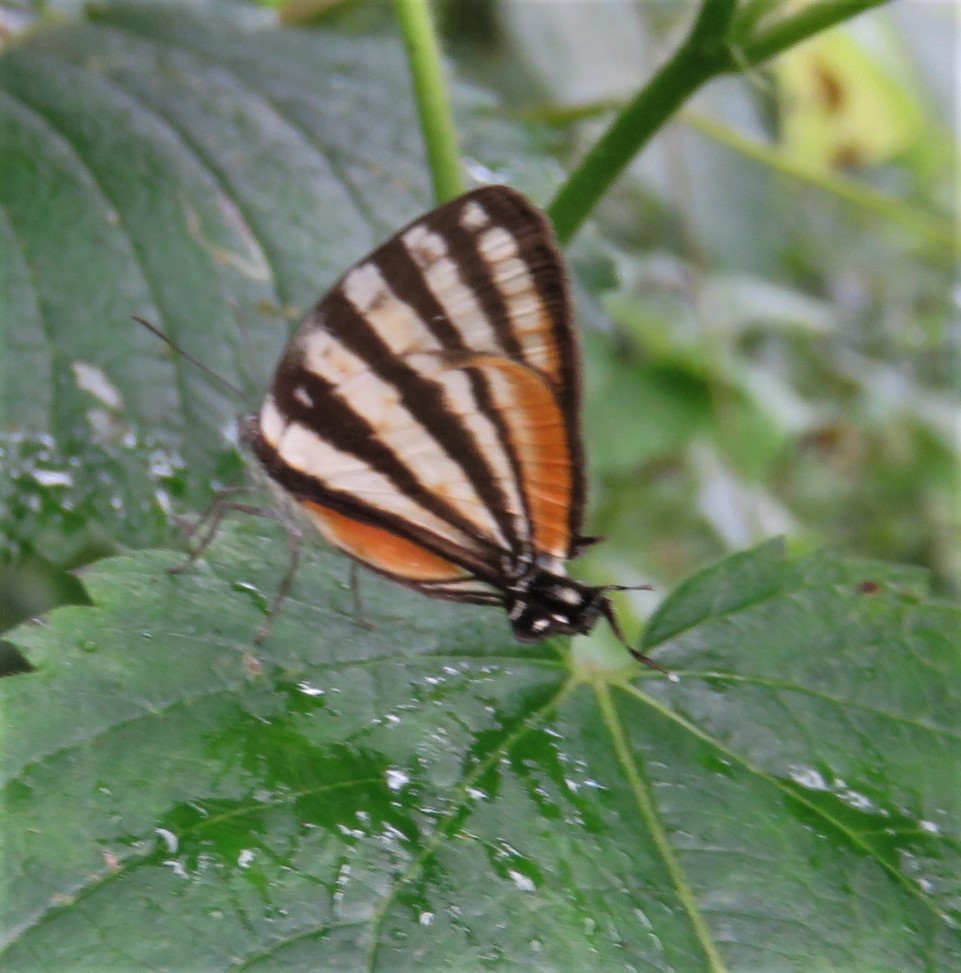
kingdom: Animalia
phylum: Arthropoda
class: Insecta
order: Lepidoptera
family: Lycaenidae
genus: Arawacus
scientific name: Arawacus lincoides
